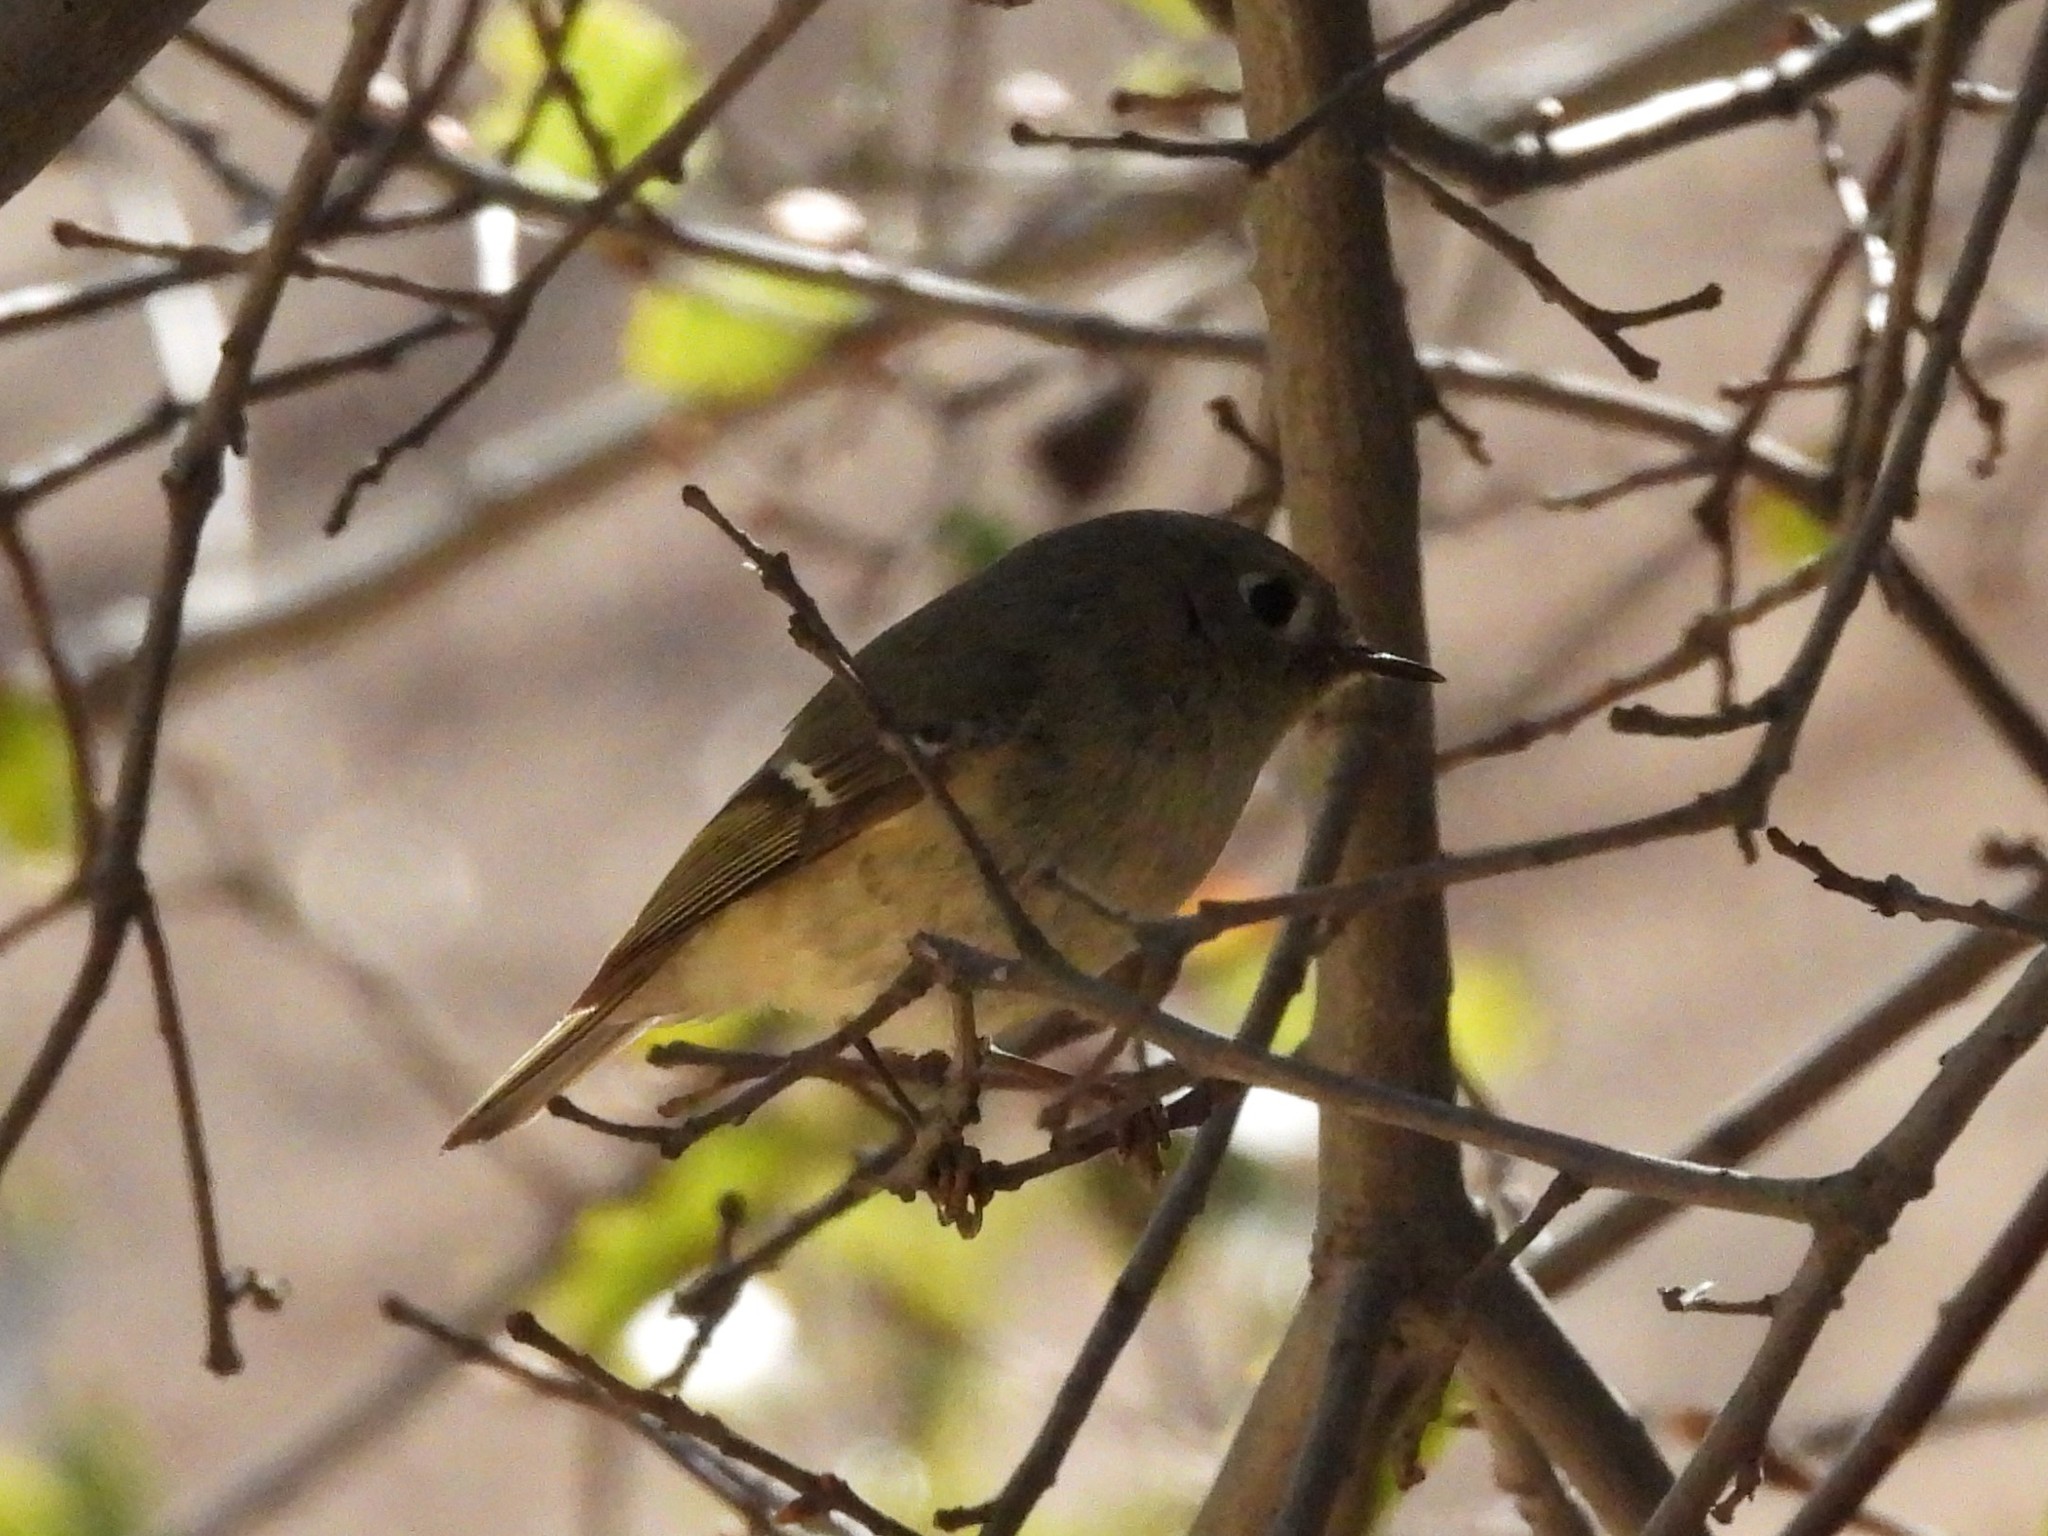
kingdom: Animalia
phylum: Chordata
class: Aves
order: Passeriformes
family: Regulidae
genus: Regulus
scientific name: Regulus calendula
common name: Ruby-crowned kinglet
